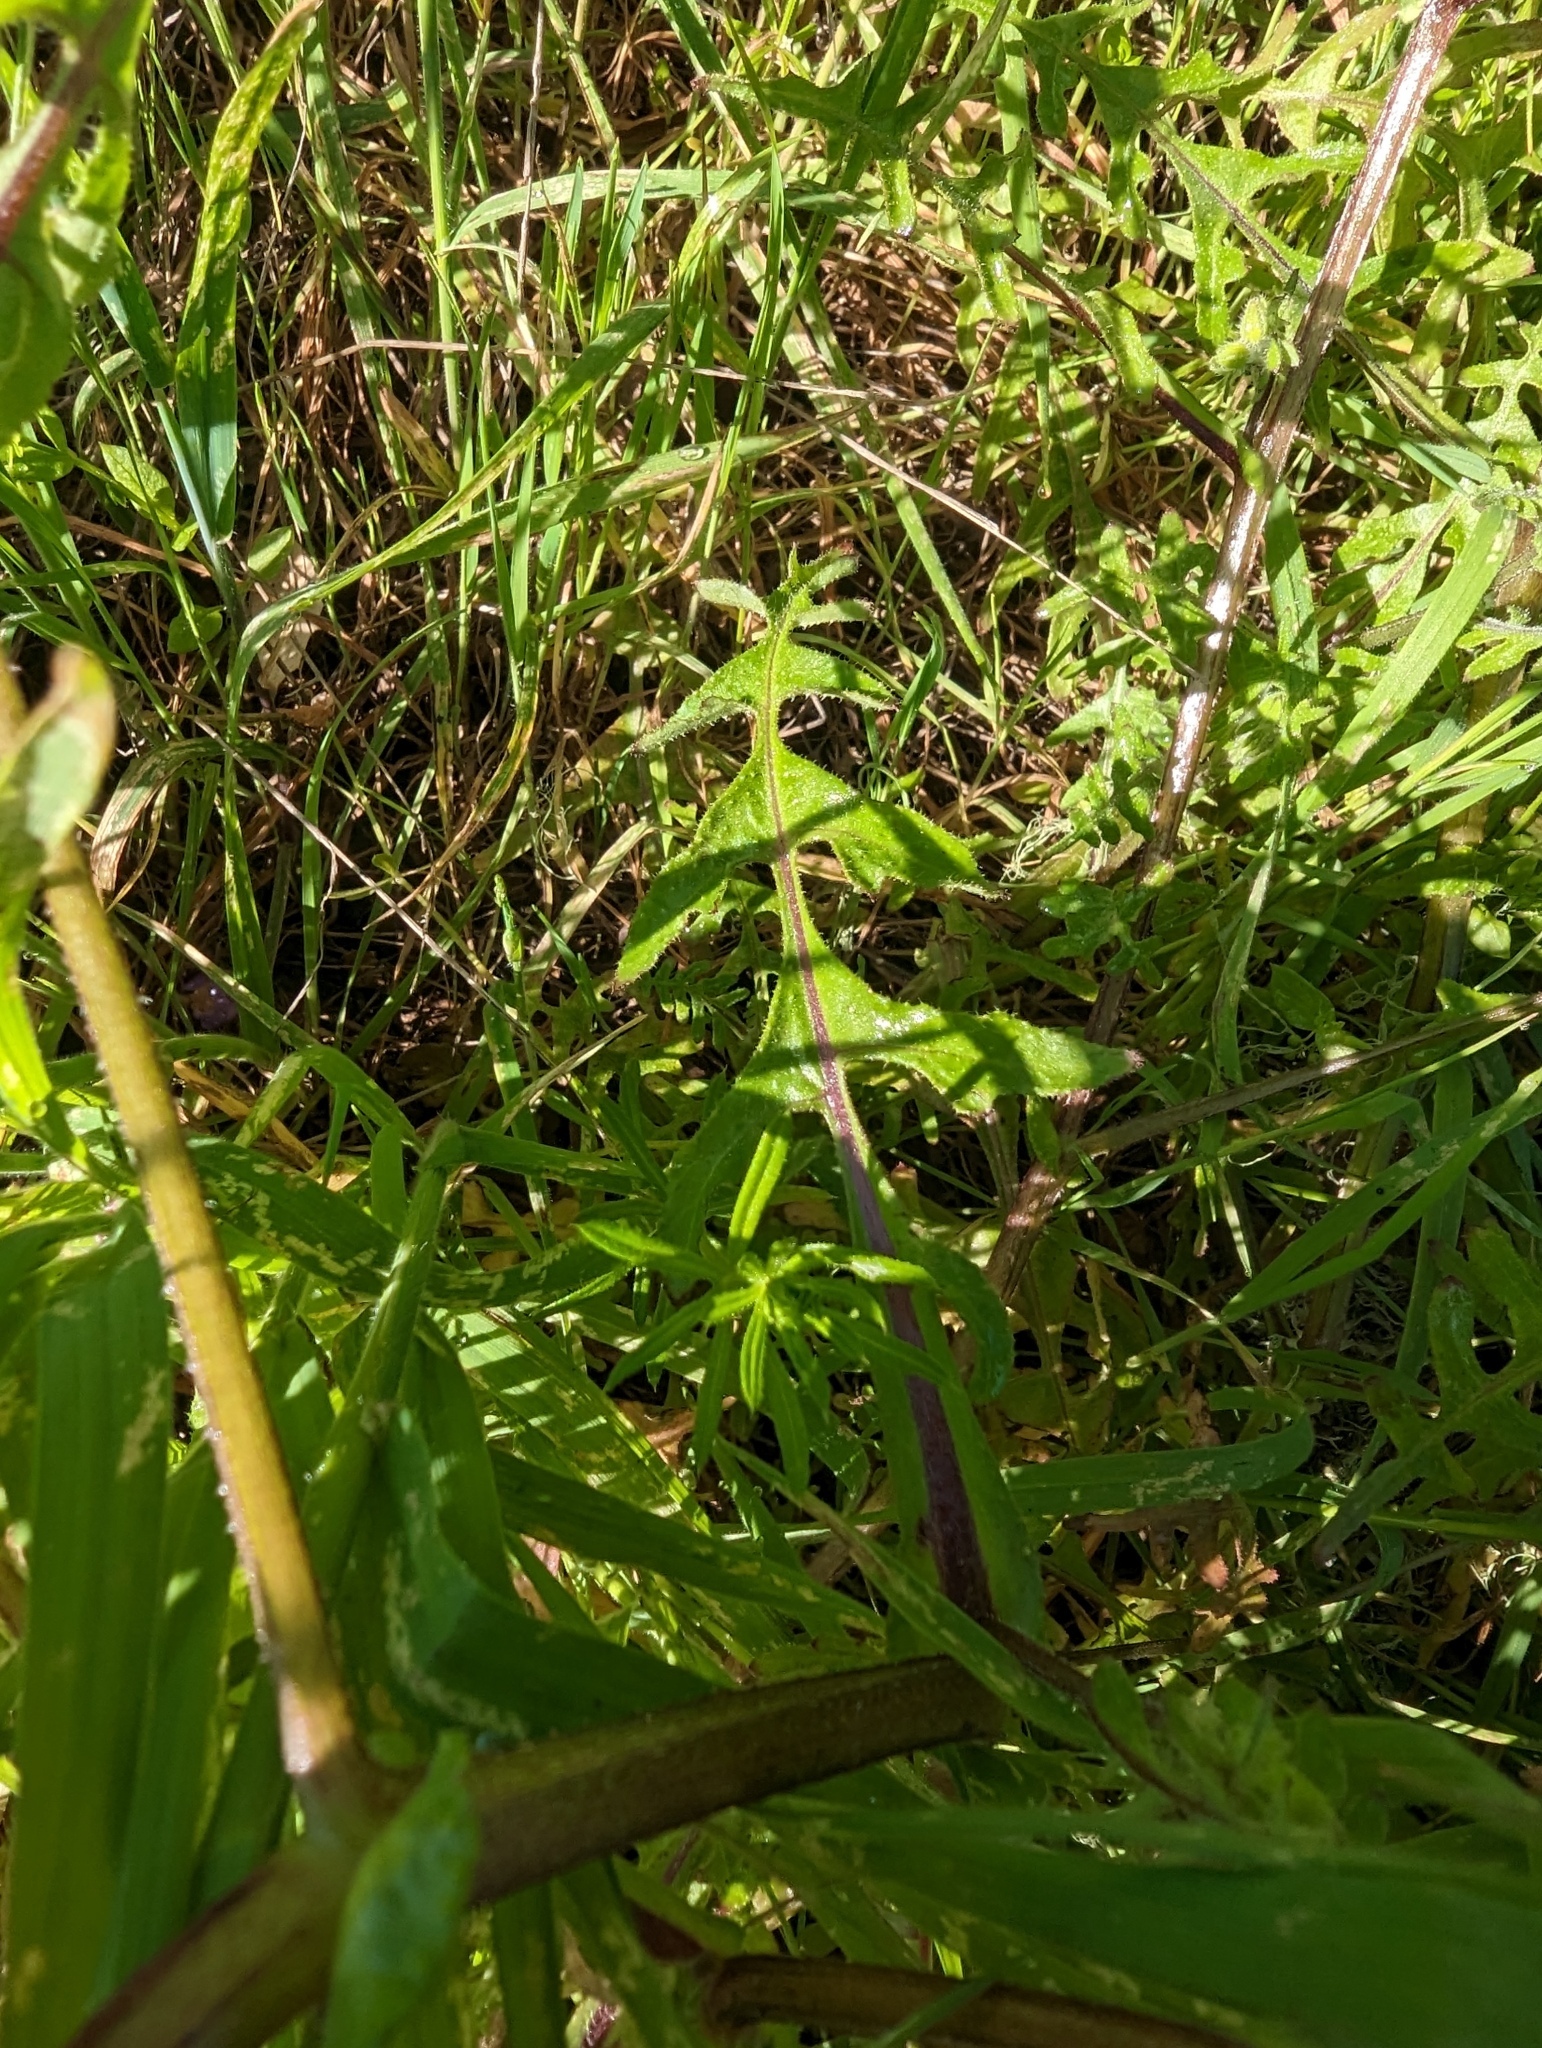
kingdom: Plantae
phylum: Tracheophyta
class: Magnoliopsida
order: Boraginales
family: Hydrophyllaceae
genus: Pholistoma
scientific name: Pholistoma auritum
